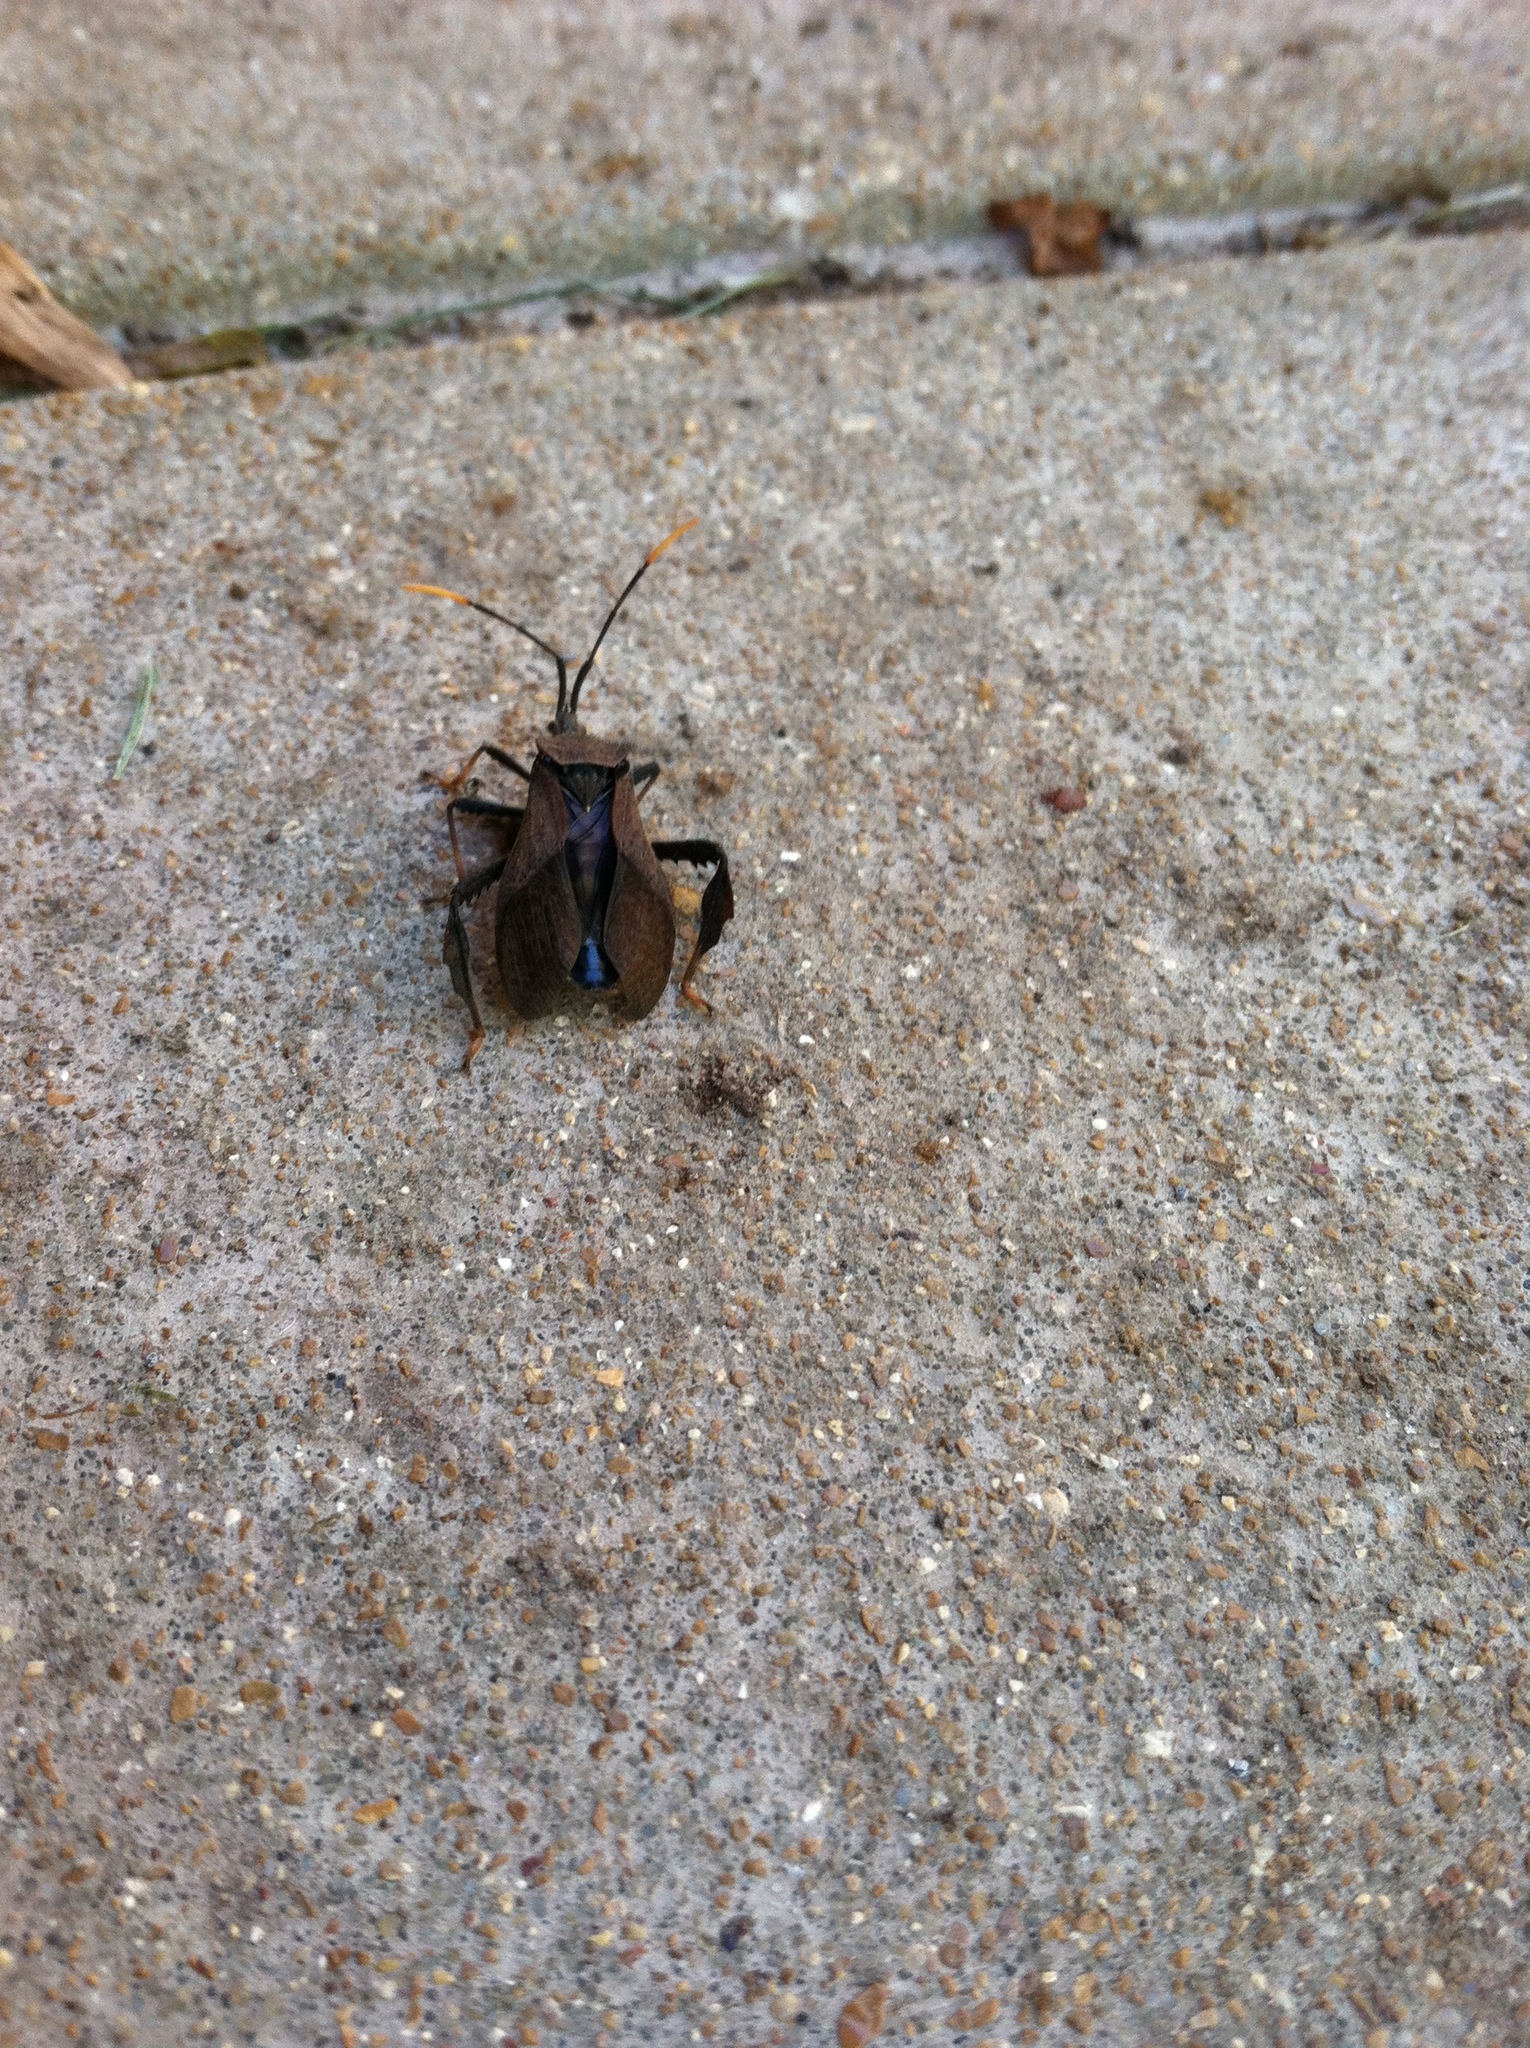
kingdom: Animalia
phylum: Arthropoda
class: Insecta
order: Hemiptera
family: Coreidae
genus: Acanthocephala
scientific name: Acanthocephala terminalis
